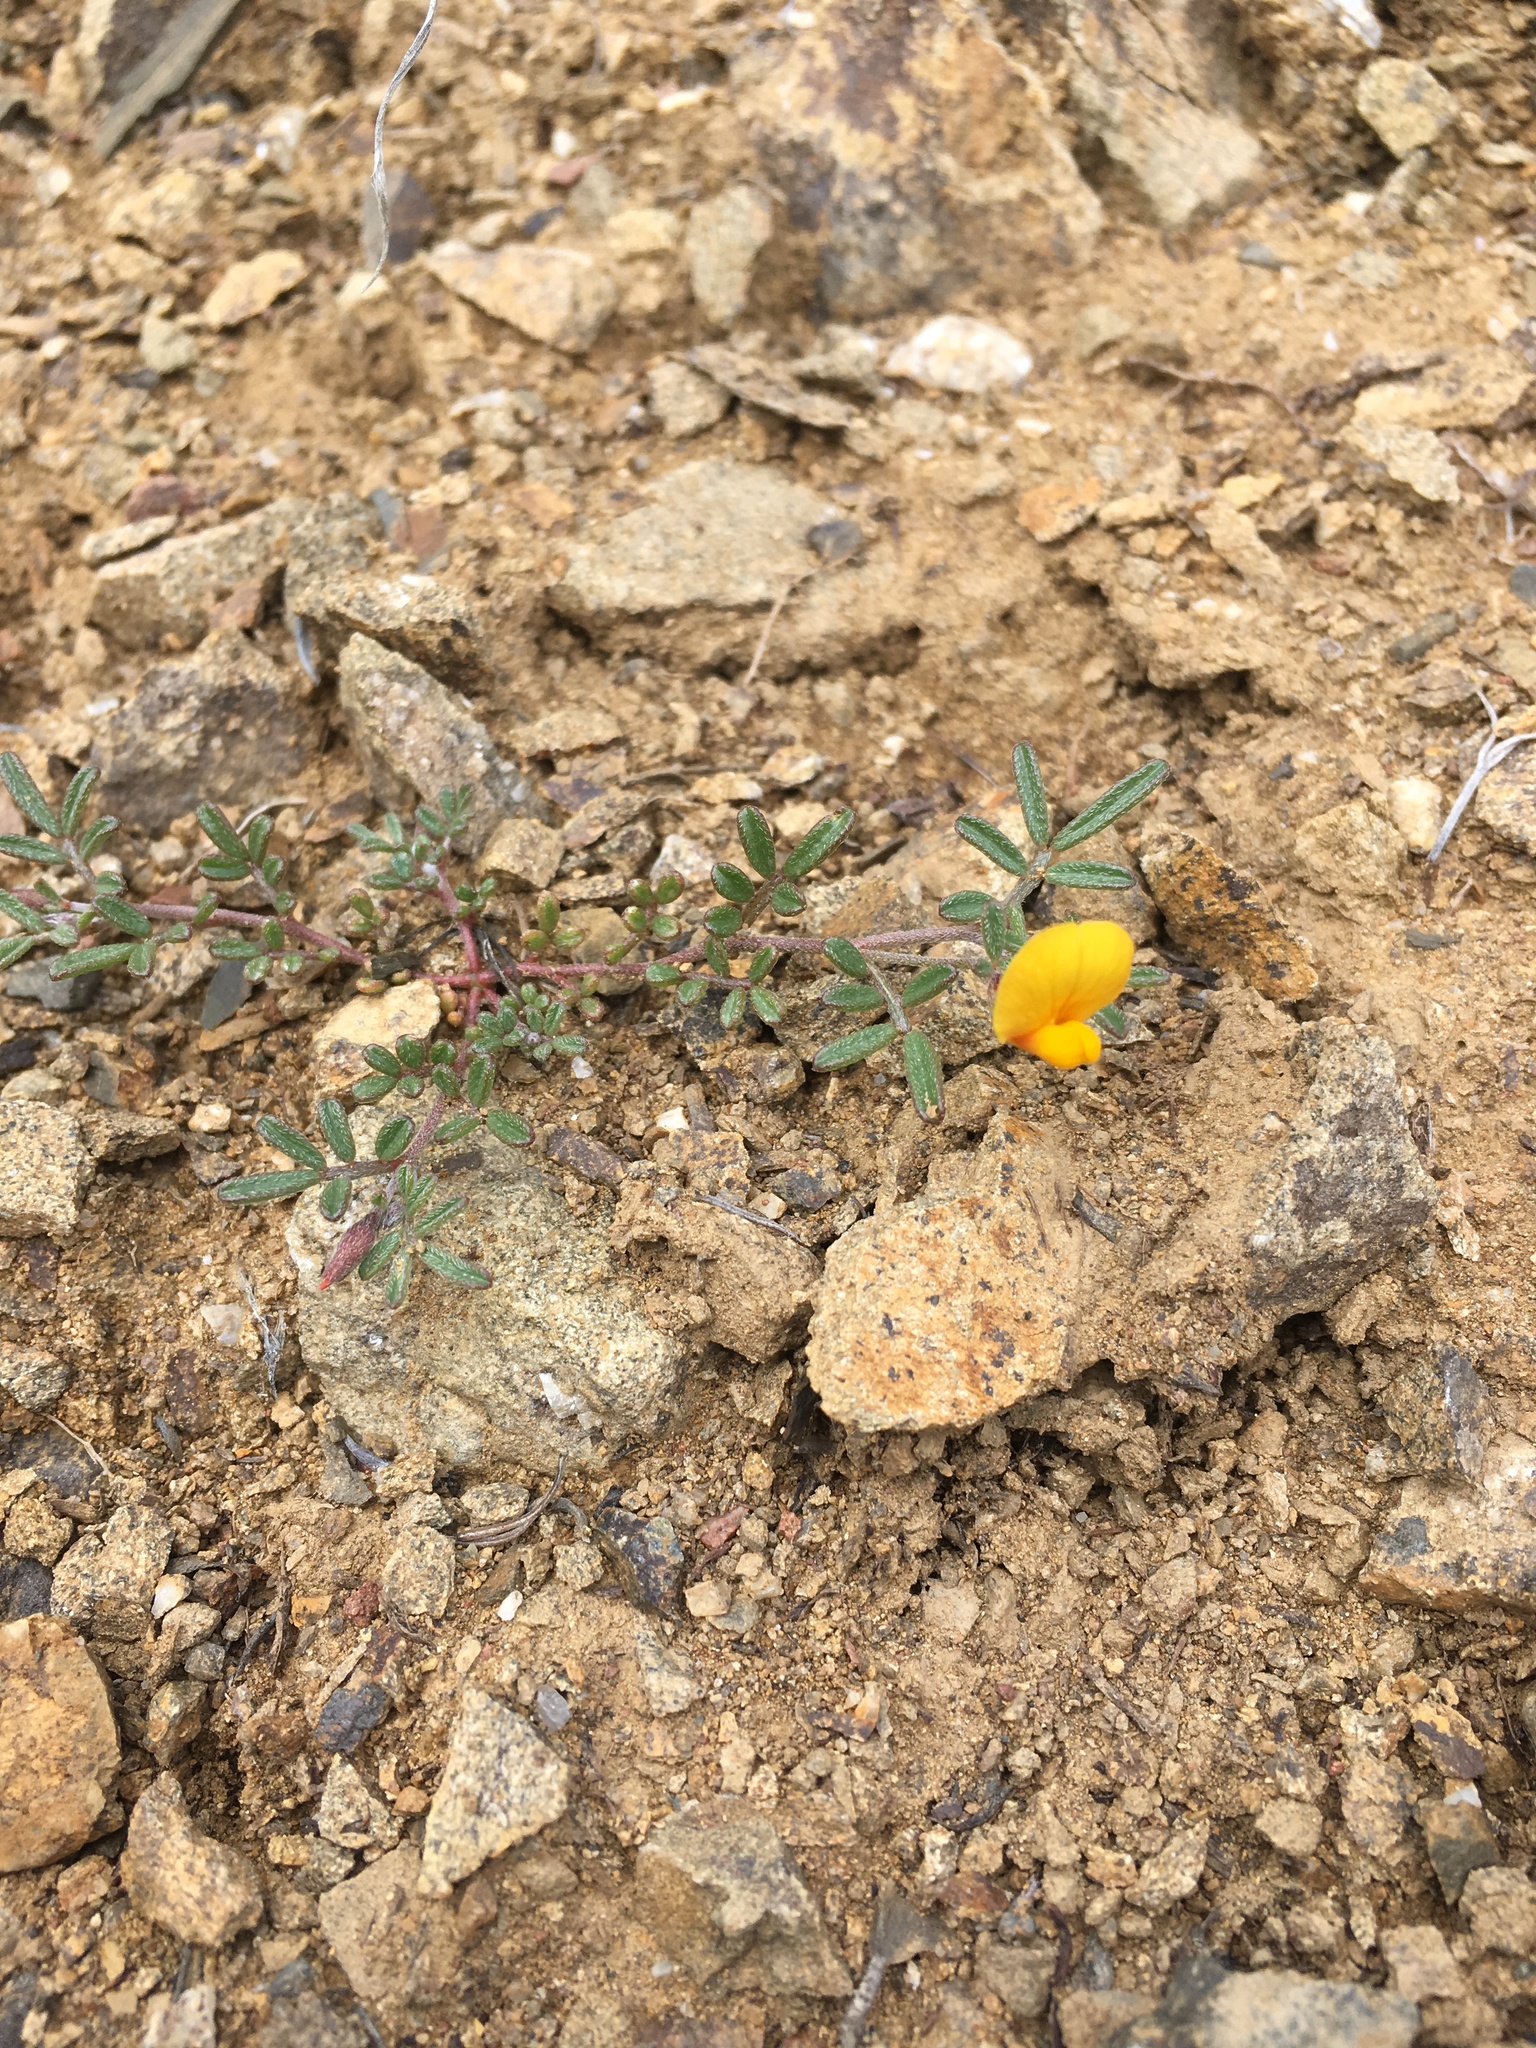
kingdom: Plantae
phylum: Tracheophyta
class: Magnoliopsida
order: Fabales
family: Fabaceae
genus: Acmispon
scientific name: Acmispon strigosus
